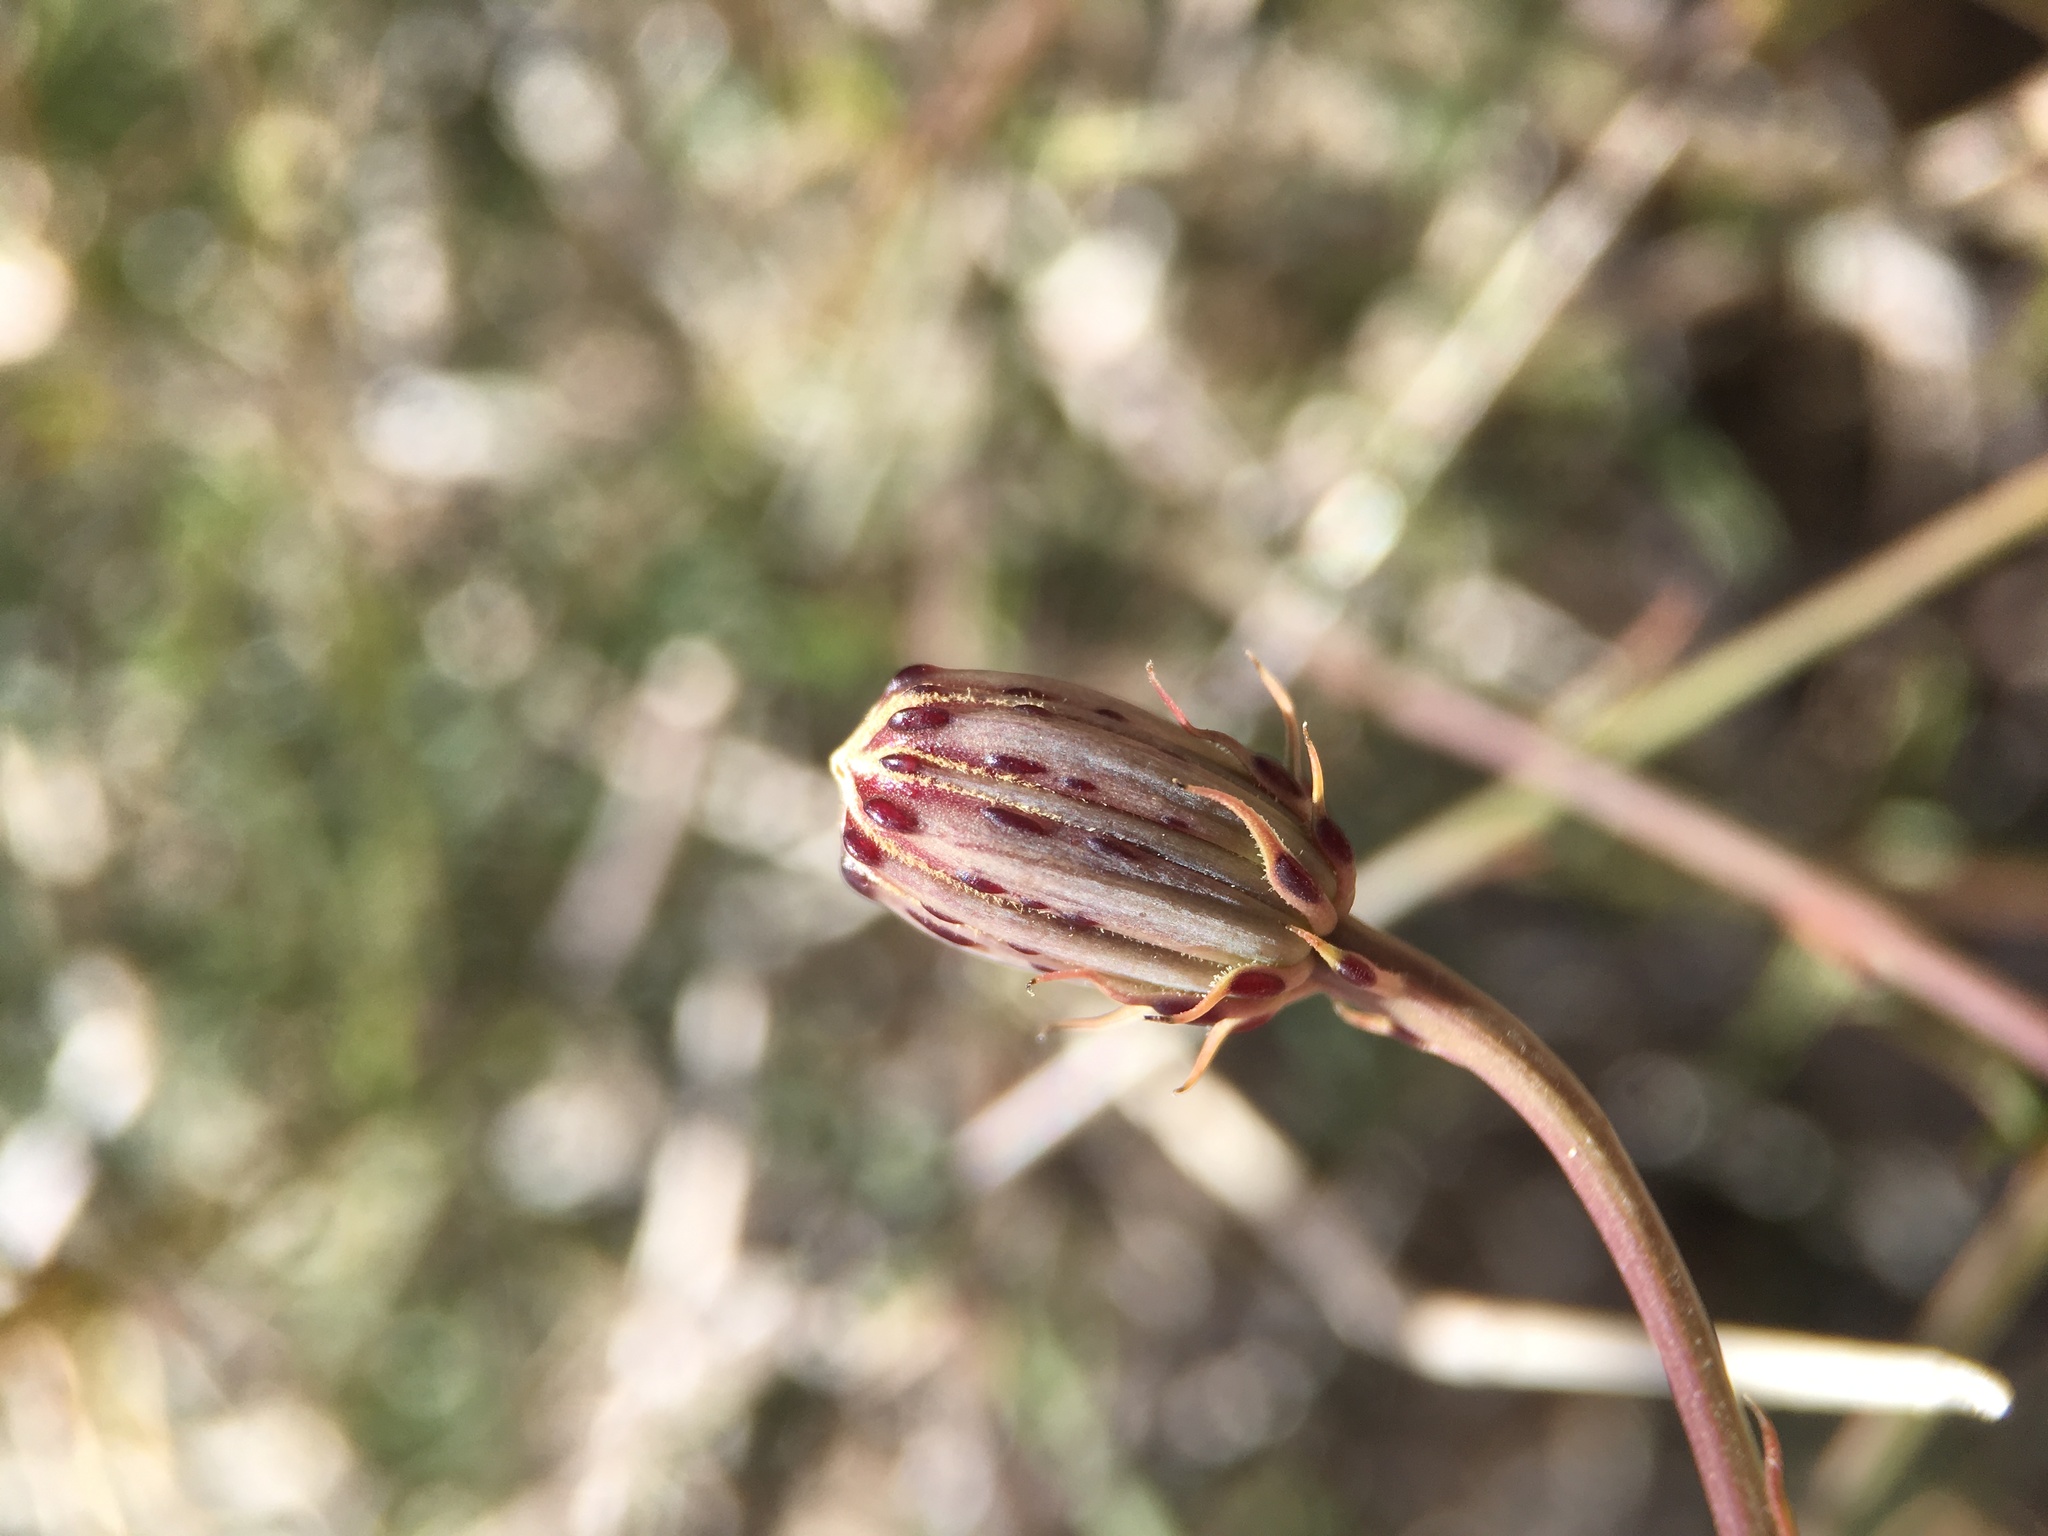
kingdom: Plantae
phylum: Tracheophyta
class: Magnoliopsida
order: Asterales
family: Asteraceae
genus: Adenophyllum
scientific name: Adenophyllum porophylloides
